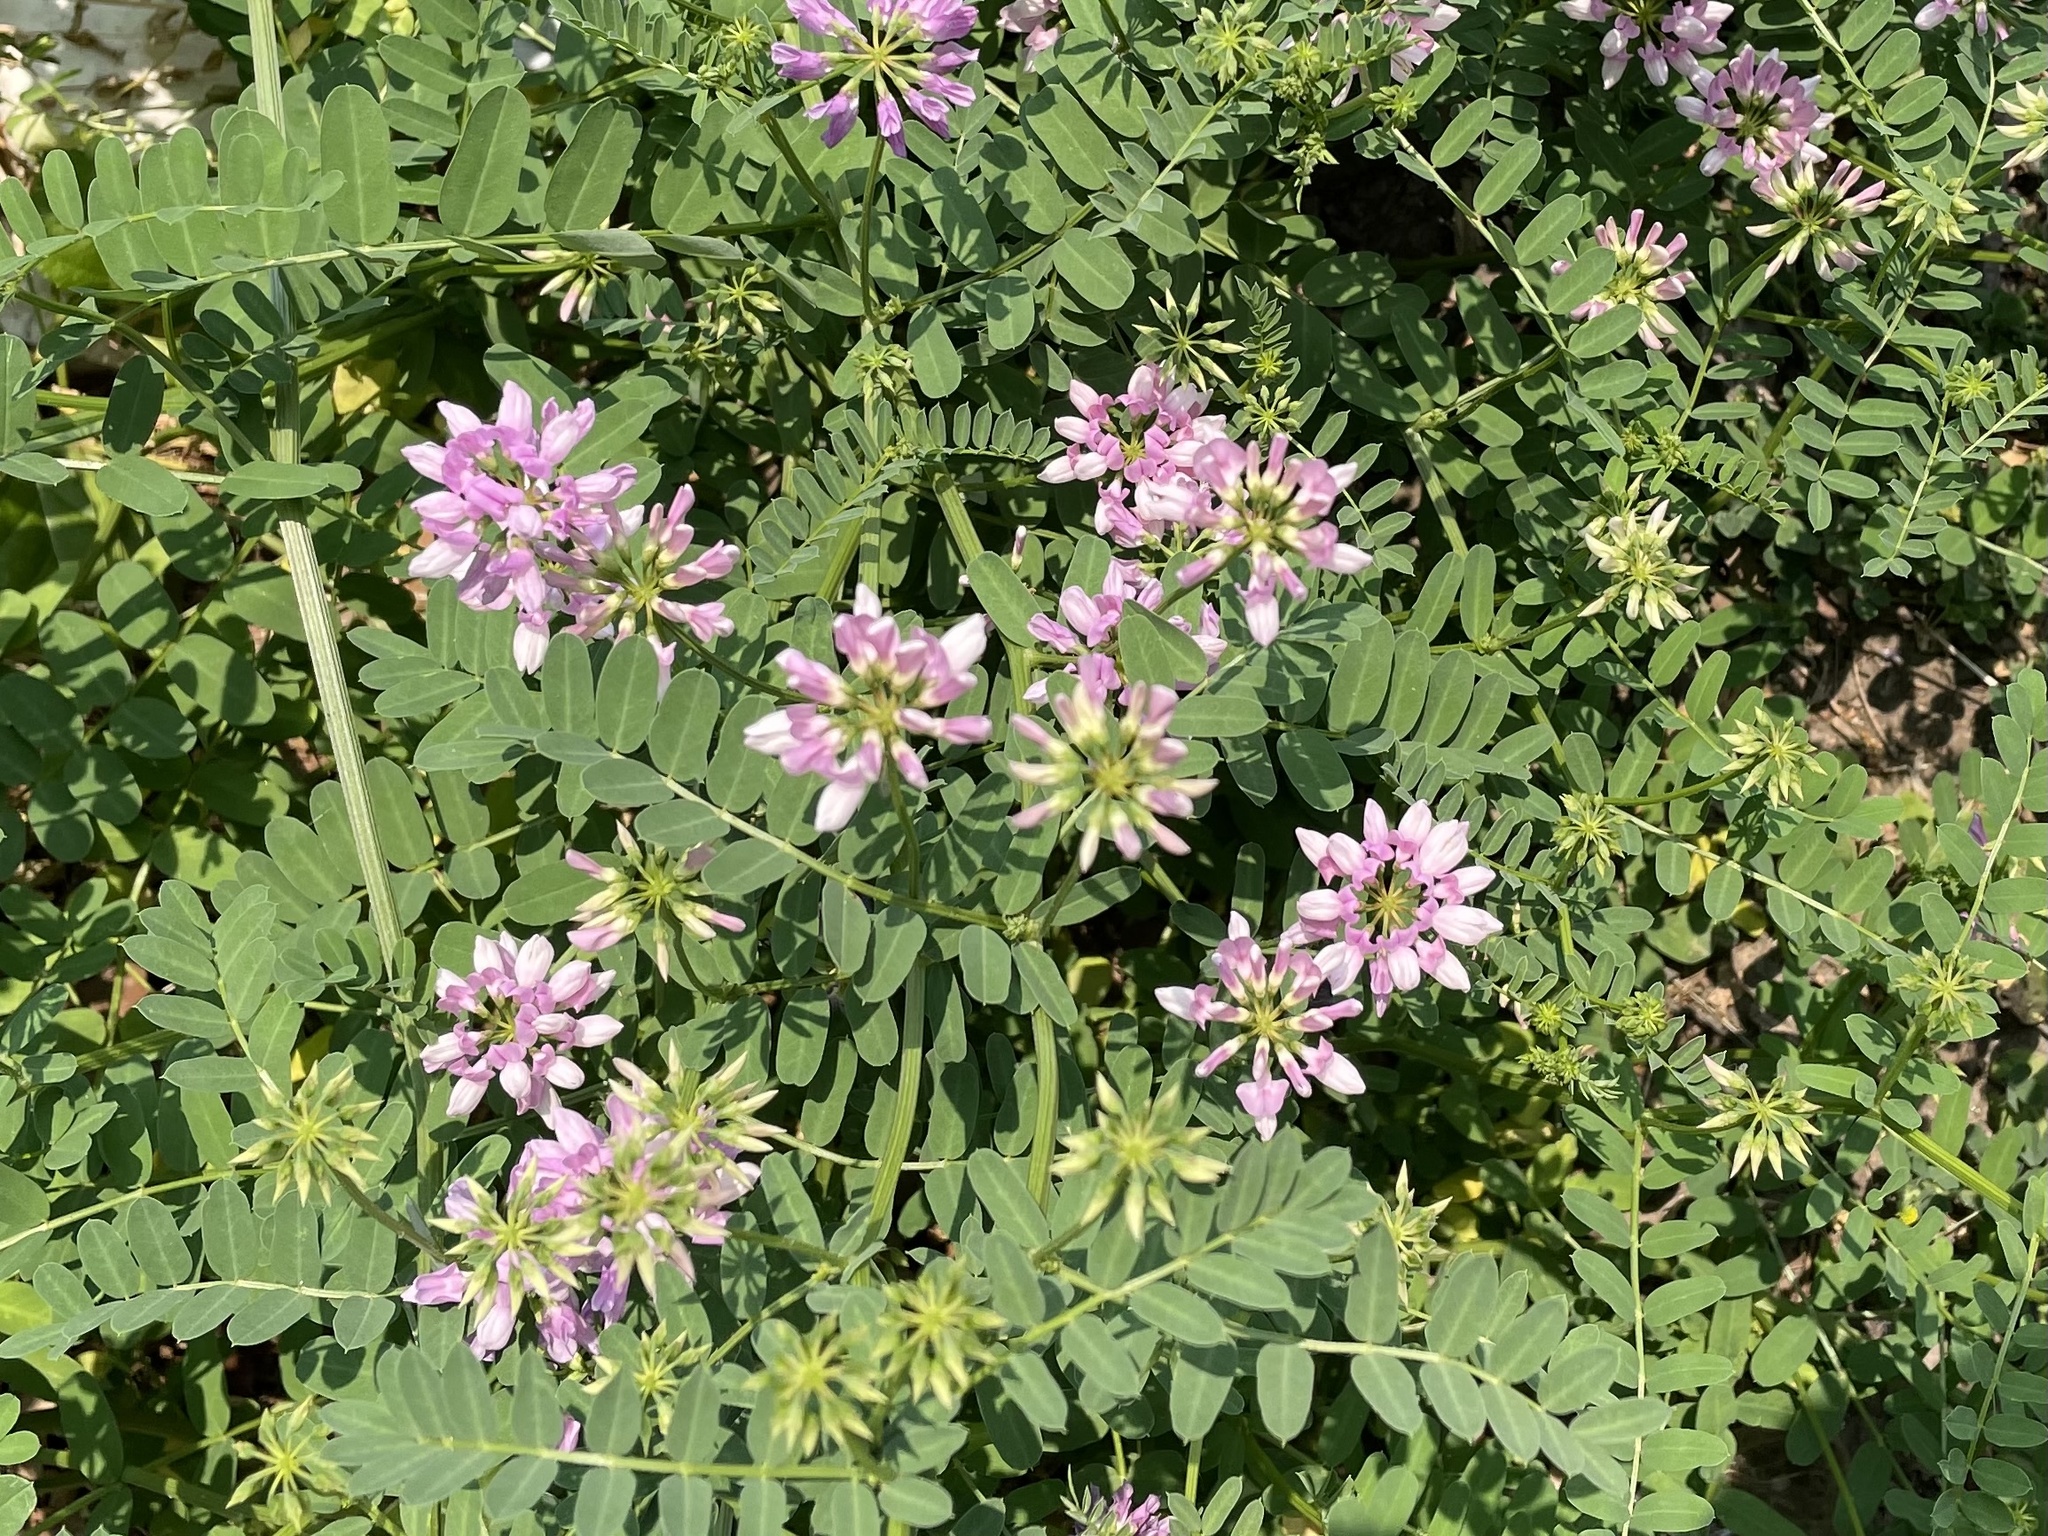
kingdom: Plantae
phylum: Tracheophyta
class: Magnoliopsida
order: Fabales
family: Fabaceae
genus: Coronilla
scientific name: Coronilla varia
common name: Crownvetch
